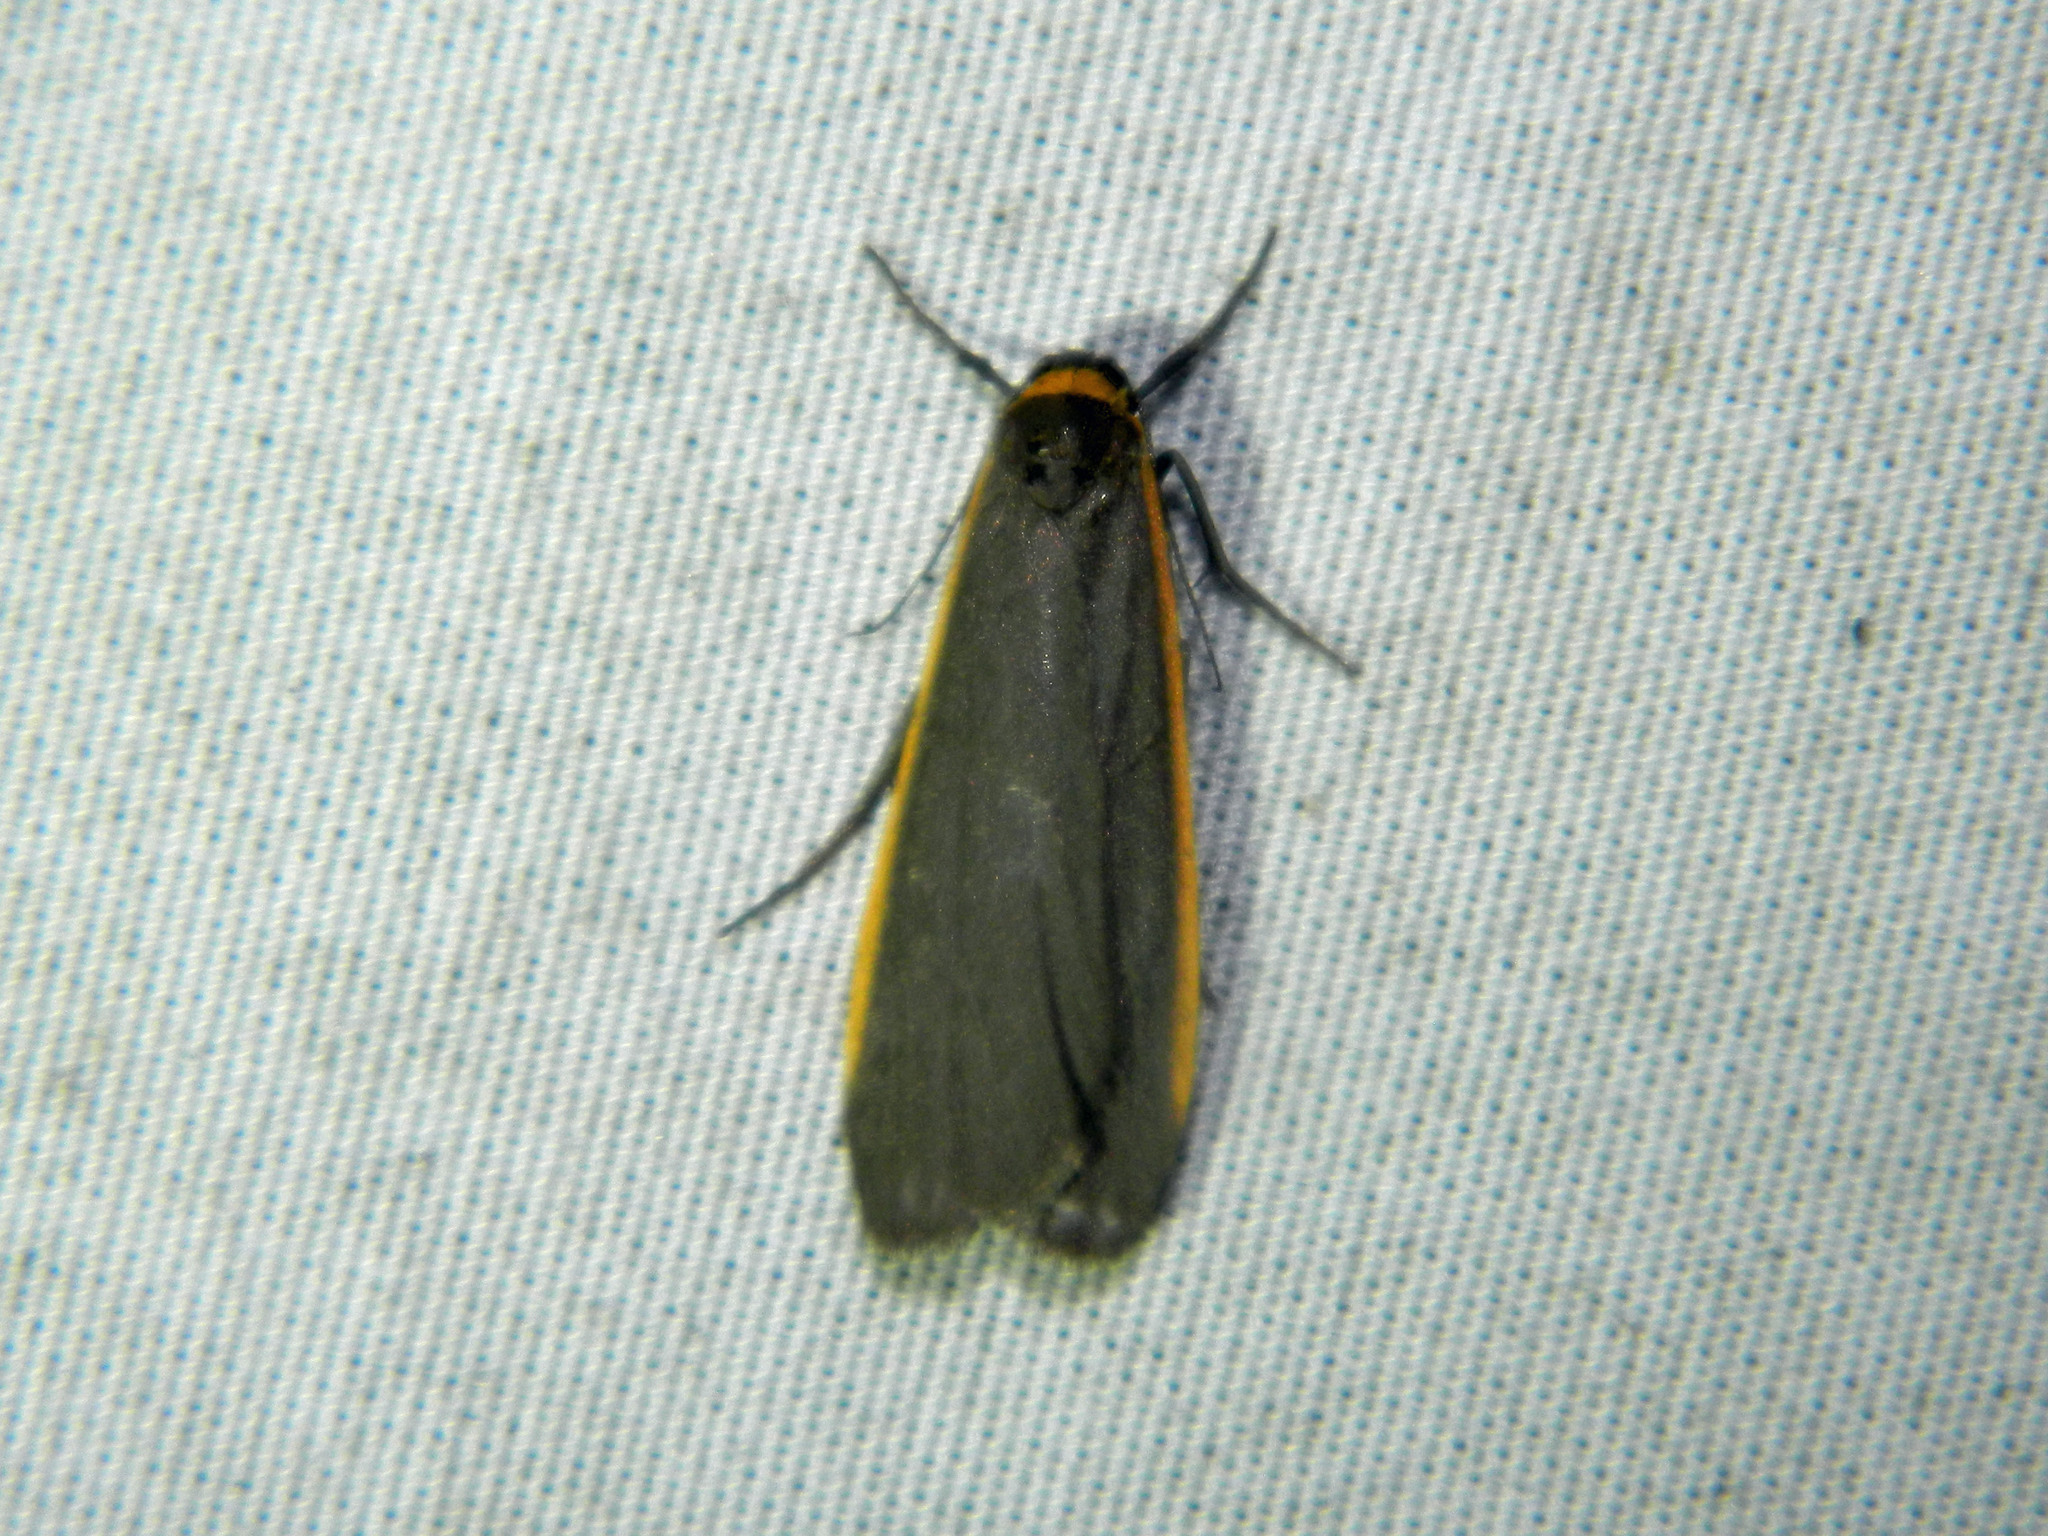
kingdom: Animalia
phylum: Arthropoda
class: Insecta
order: Lepidoptera
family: Erebidae
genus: Manulea
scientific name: Manulea bicolor
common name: Bicolored moth
